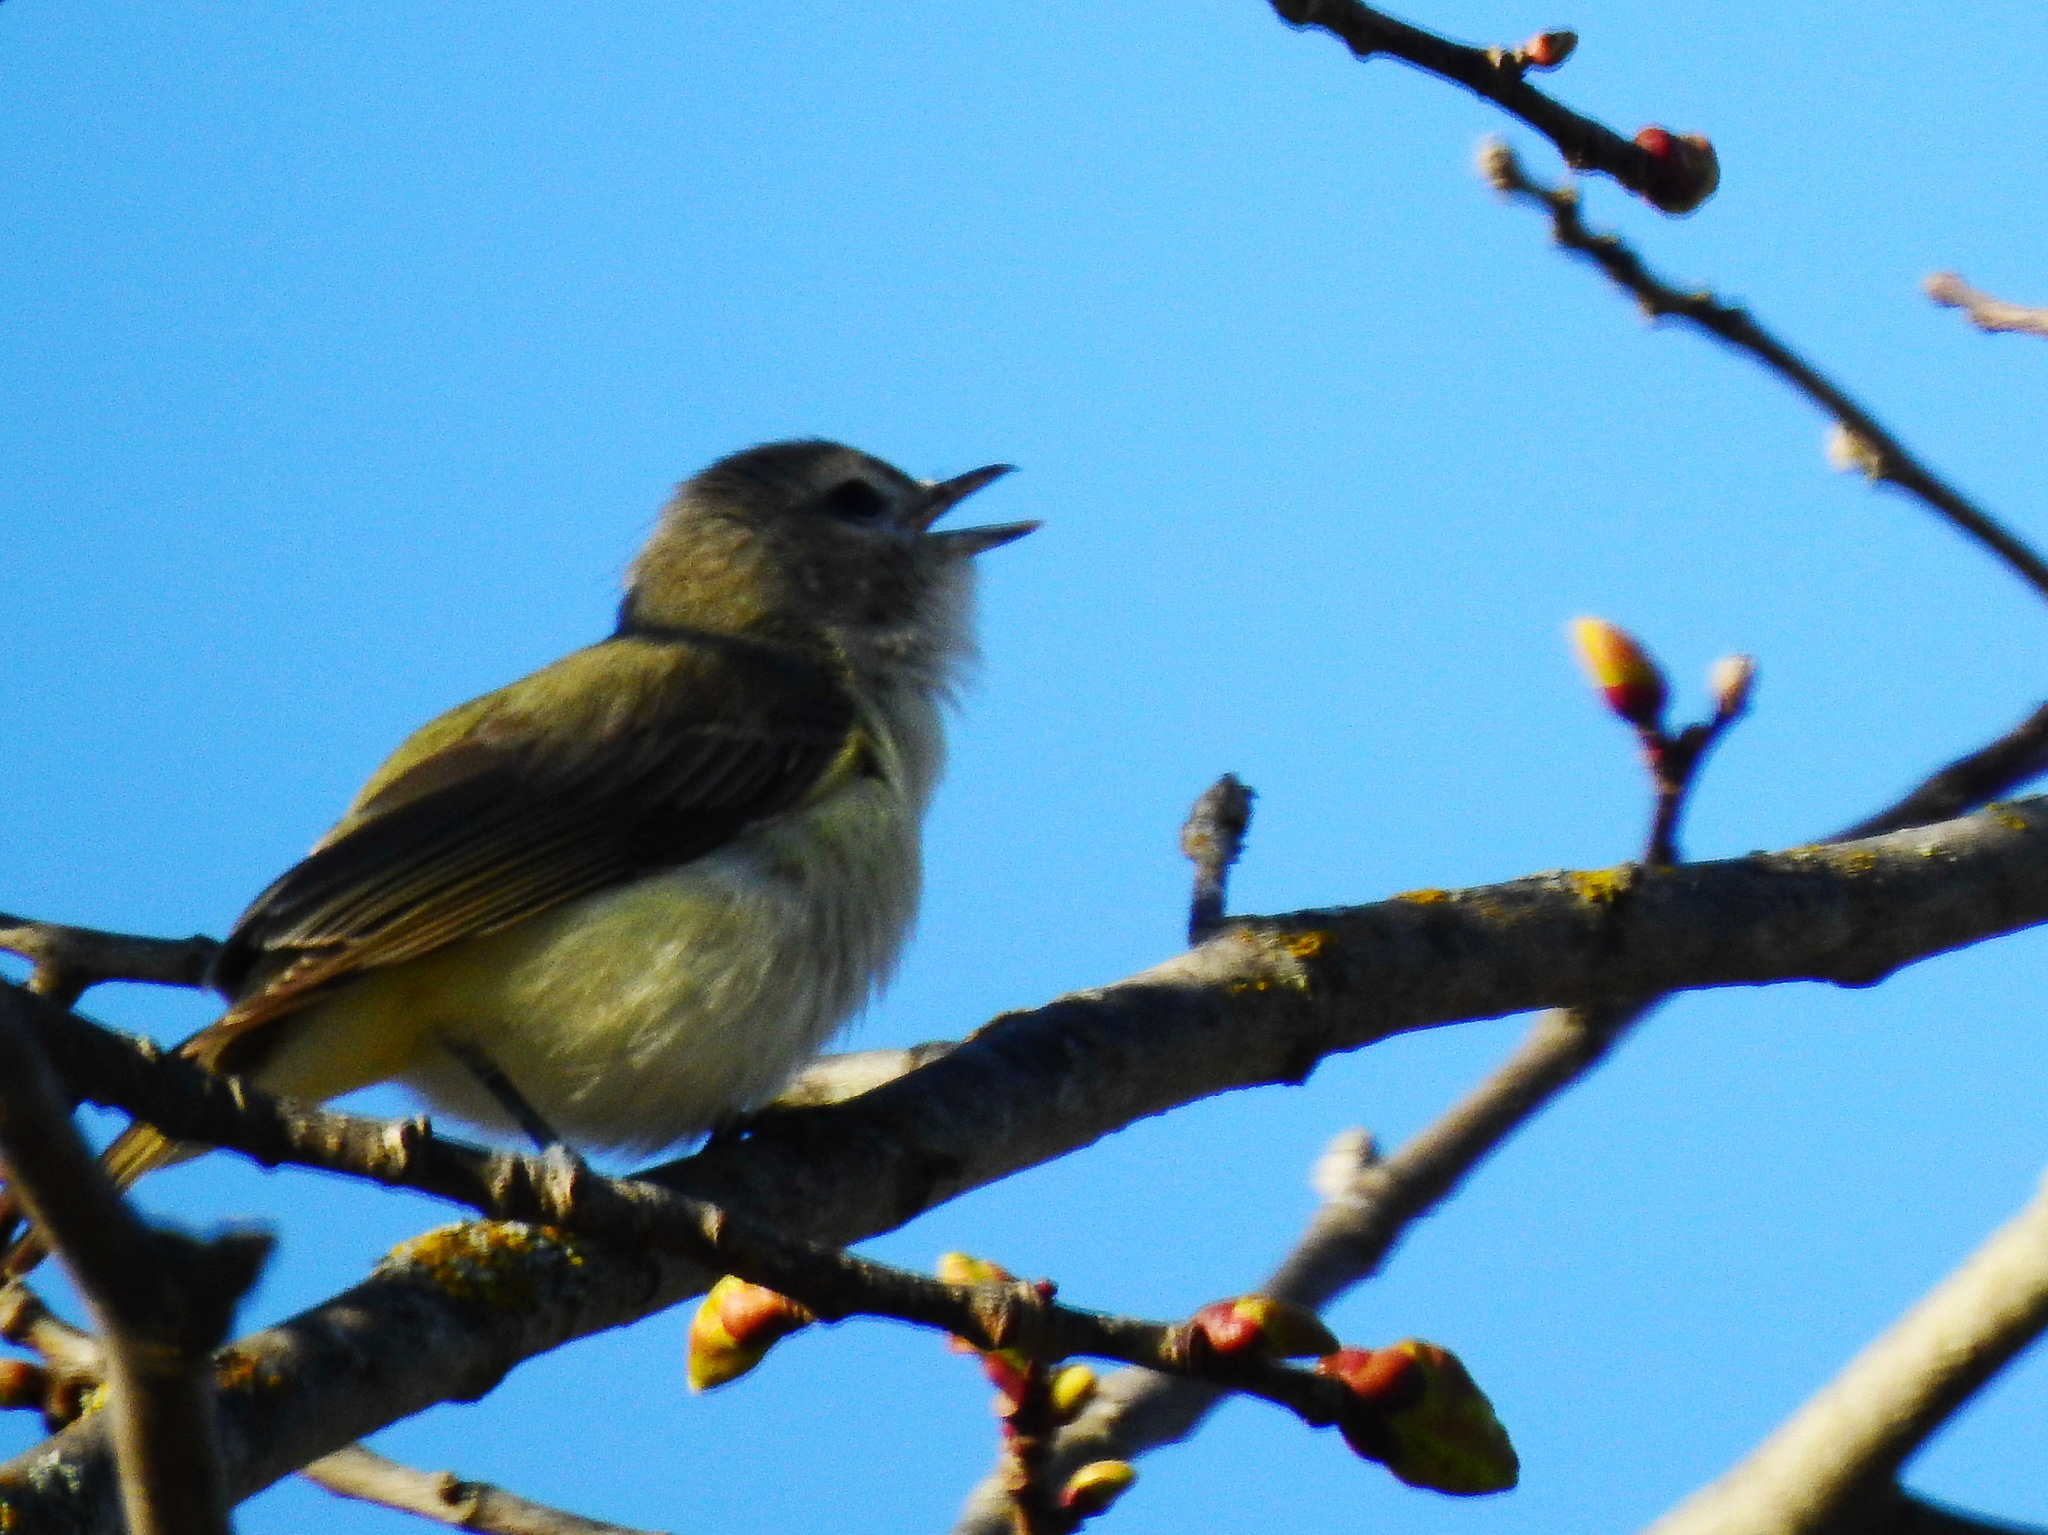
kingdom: Animalia
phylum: Chordata
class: Aves
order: Passeriformes
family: Vireonidae
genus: Vireo
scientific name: Vireo gilvus
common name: Warbling vireo
